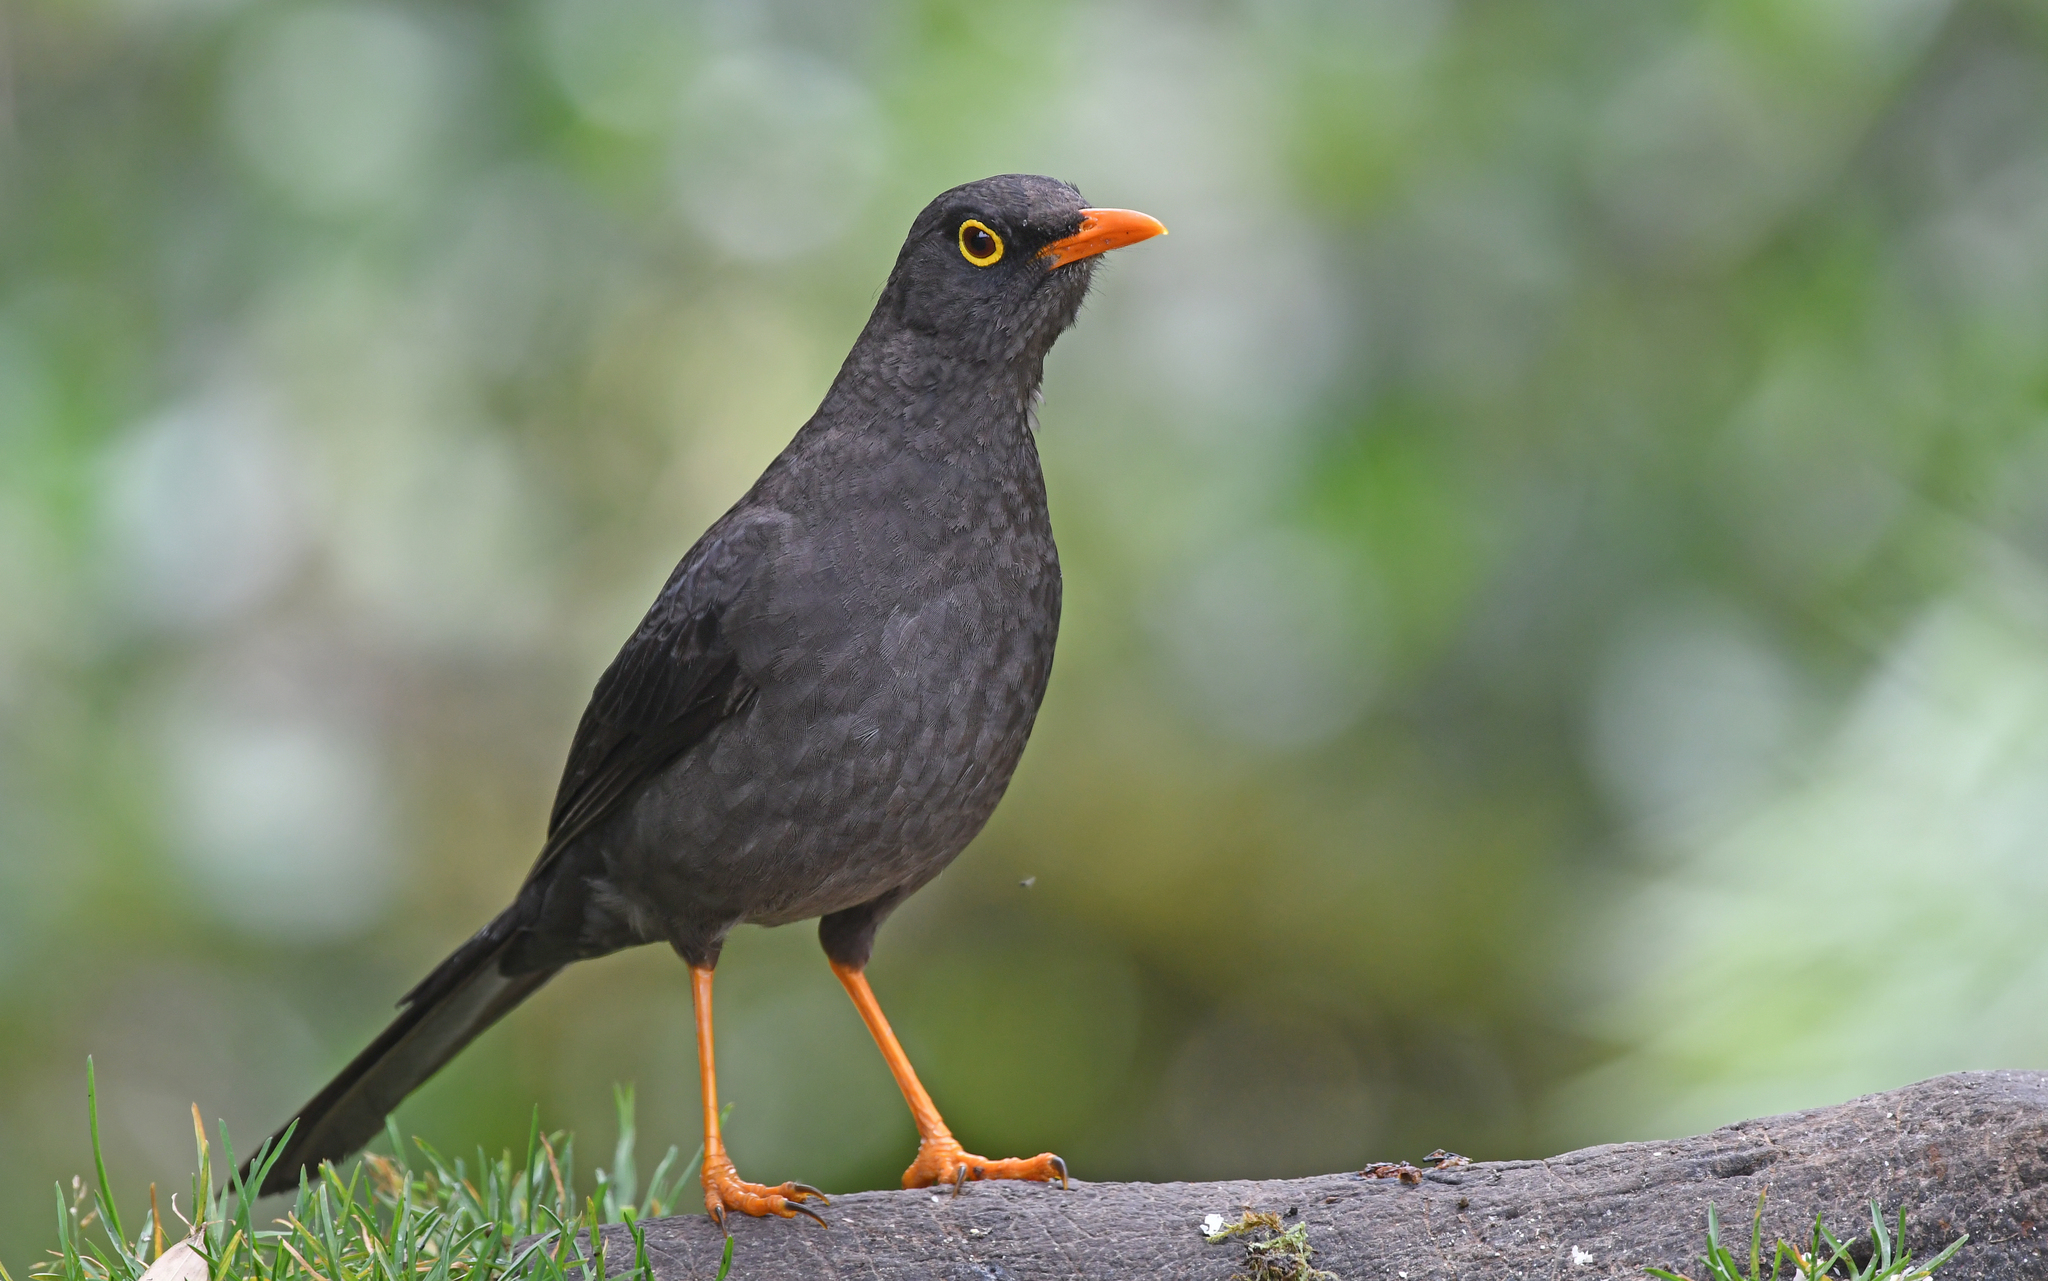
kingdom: Animalia
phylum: Chordata
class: Aves
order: Passeriformes
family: Turdidae
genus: Turdus
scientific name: Turdus fuscater
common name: Great thrush
